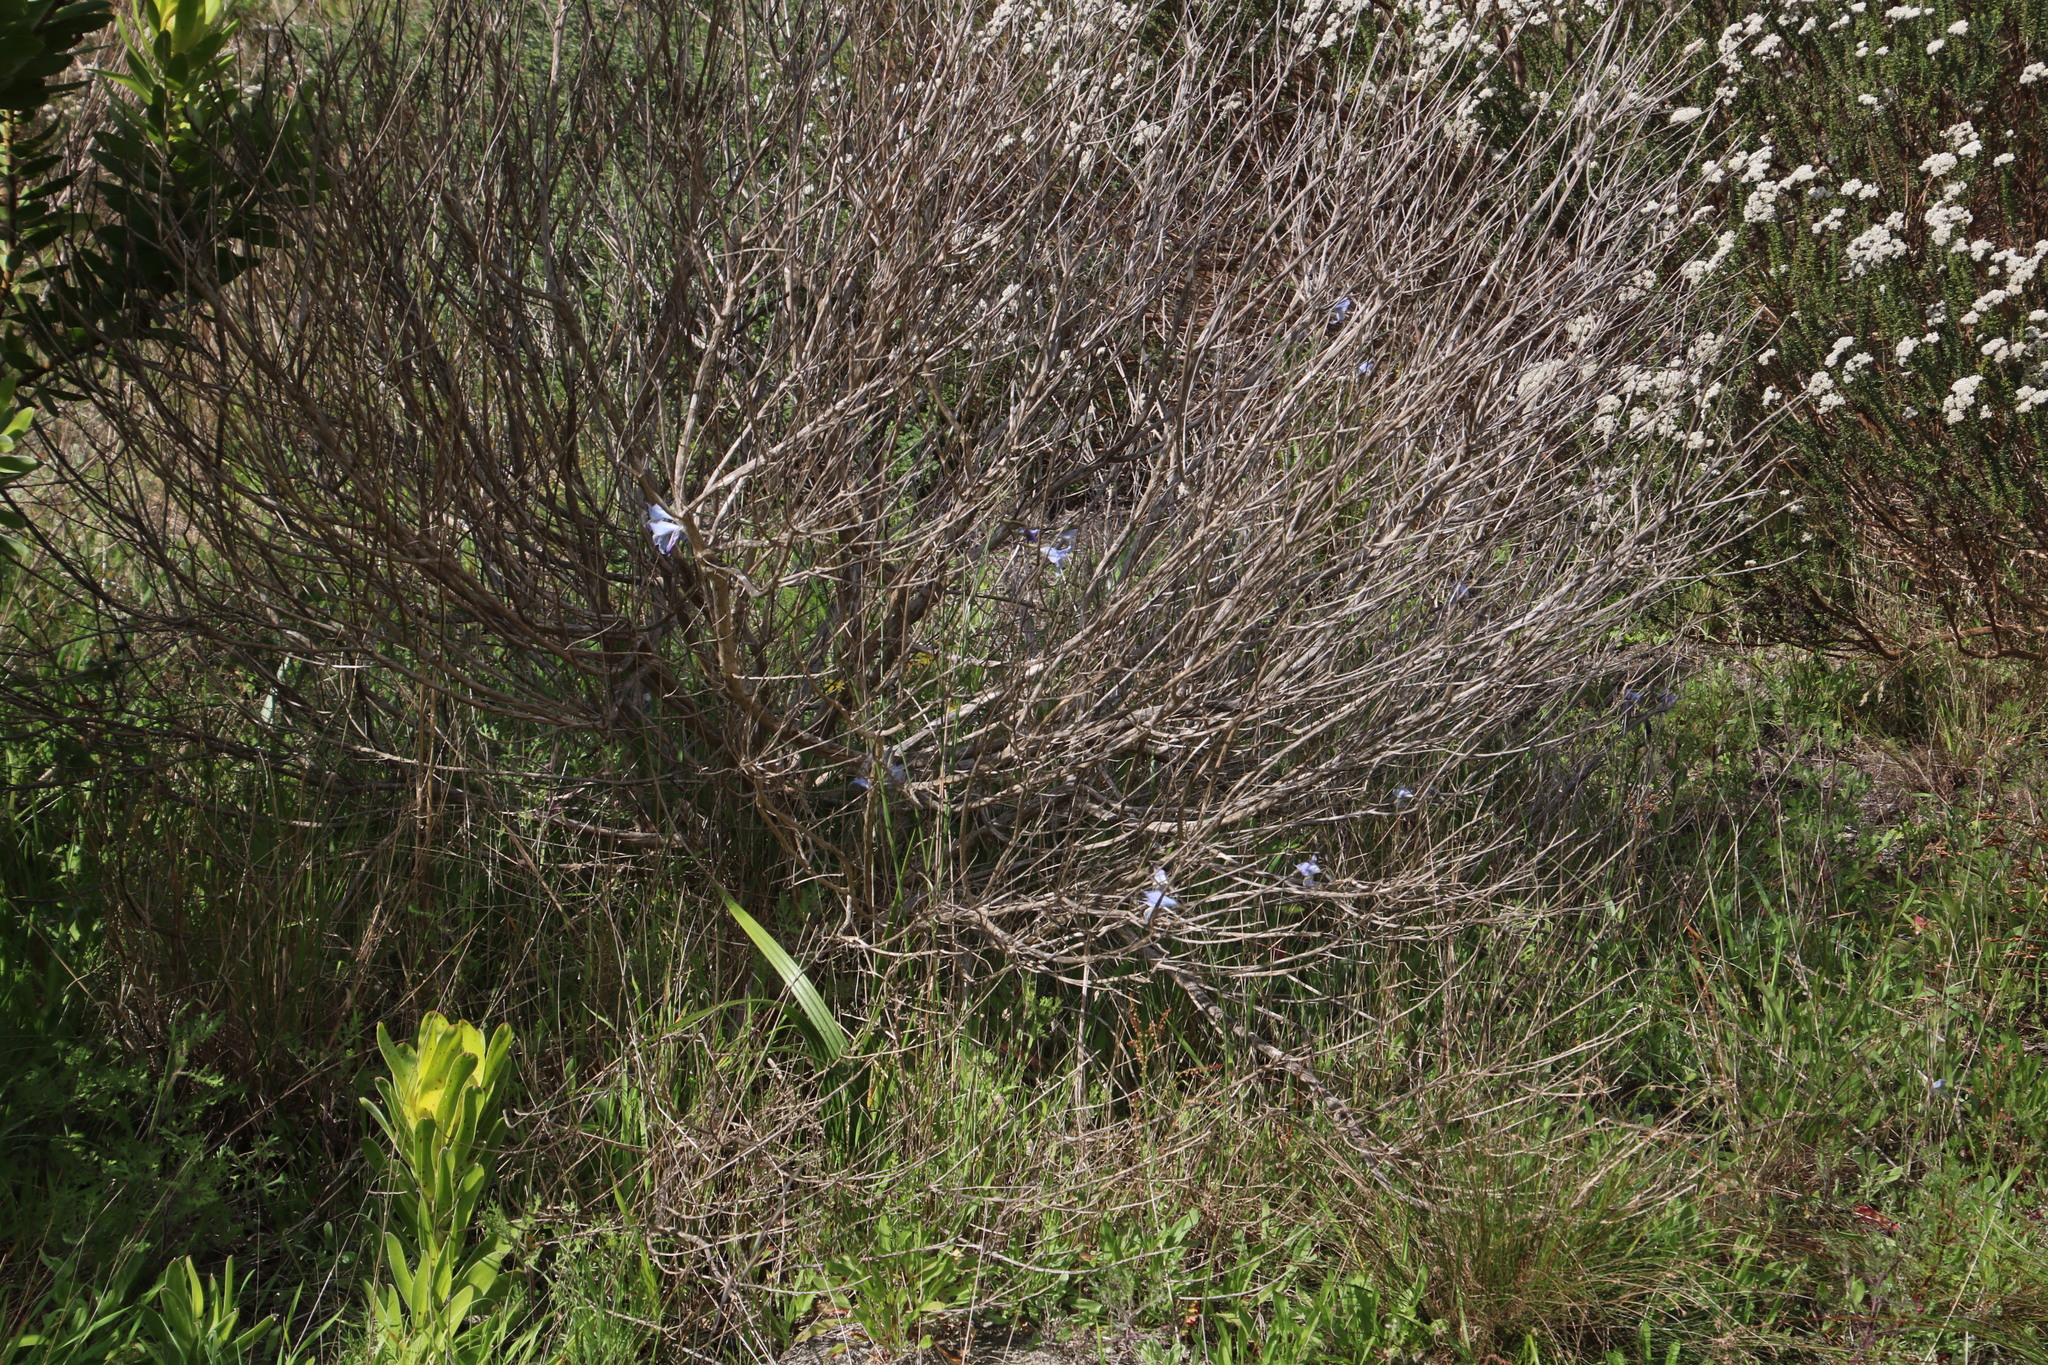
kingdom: Plantae
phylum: Tracheophyta
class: Liliopsida
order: Asparagales
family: Iridaceae
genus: Gladiolus
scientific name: Gladiolus gracilis
